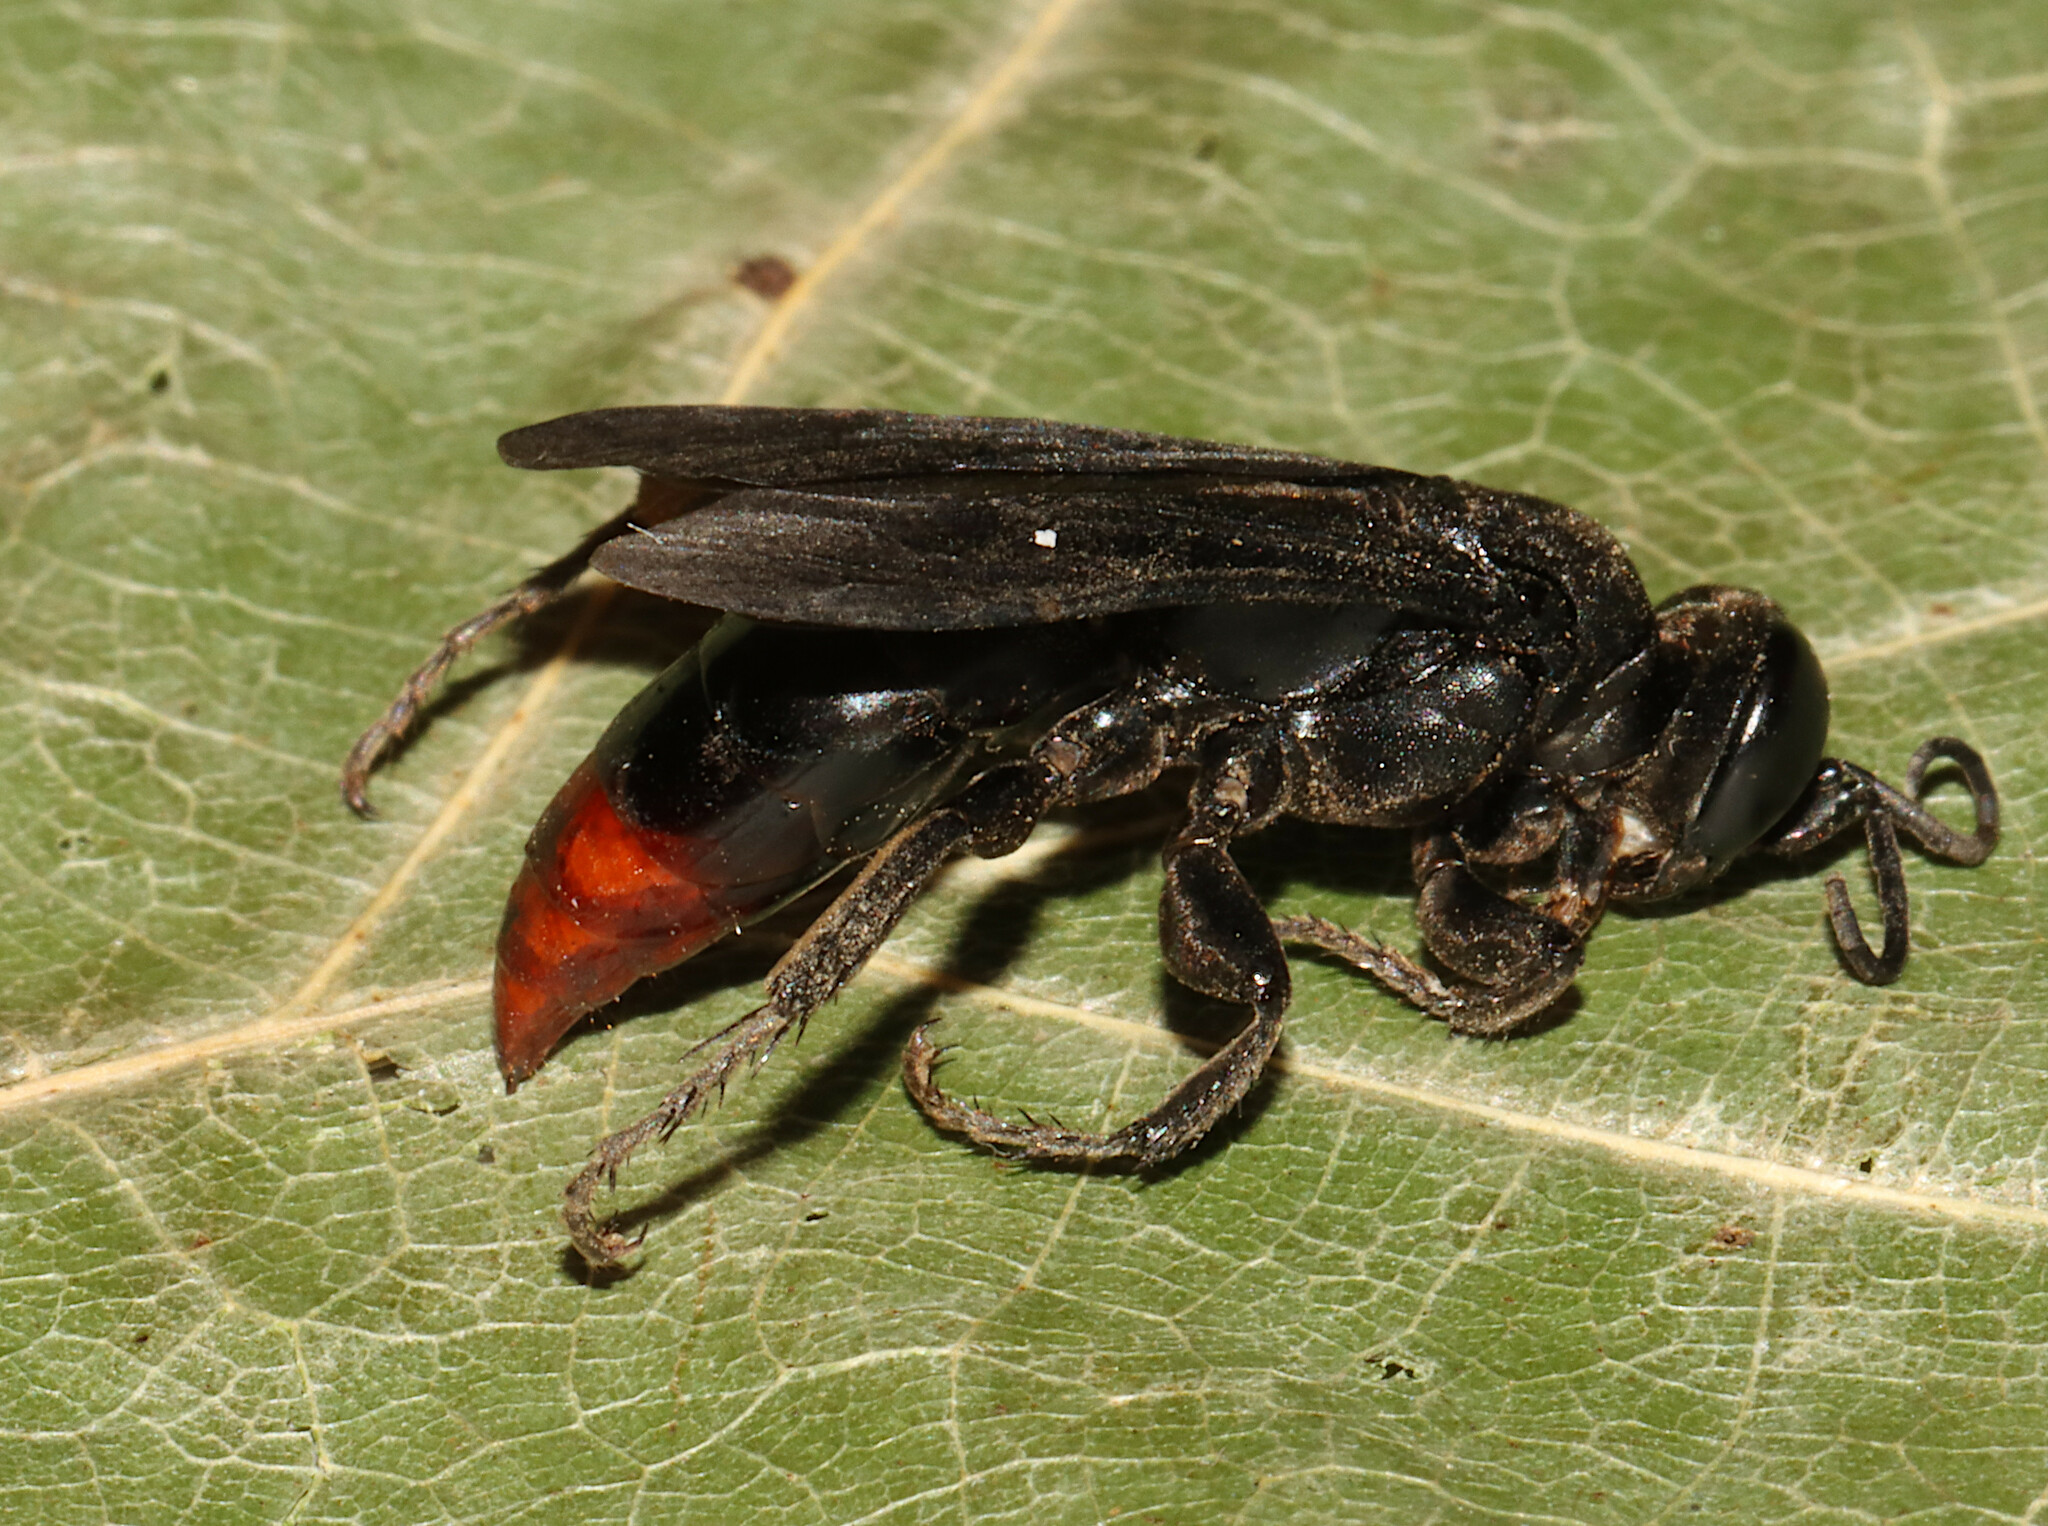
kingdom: Animalia
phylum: Arthropoda
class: Insecta
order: Hymenoptera
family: Crabronidae
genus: Larra
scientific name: Larra analis
